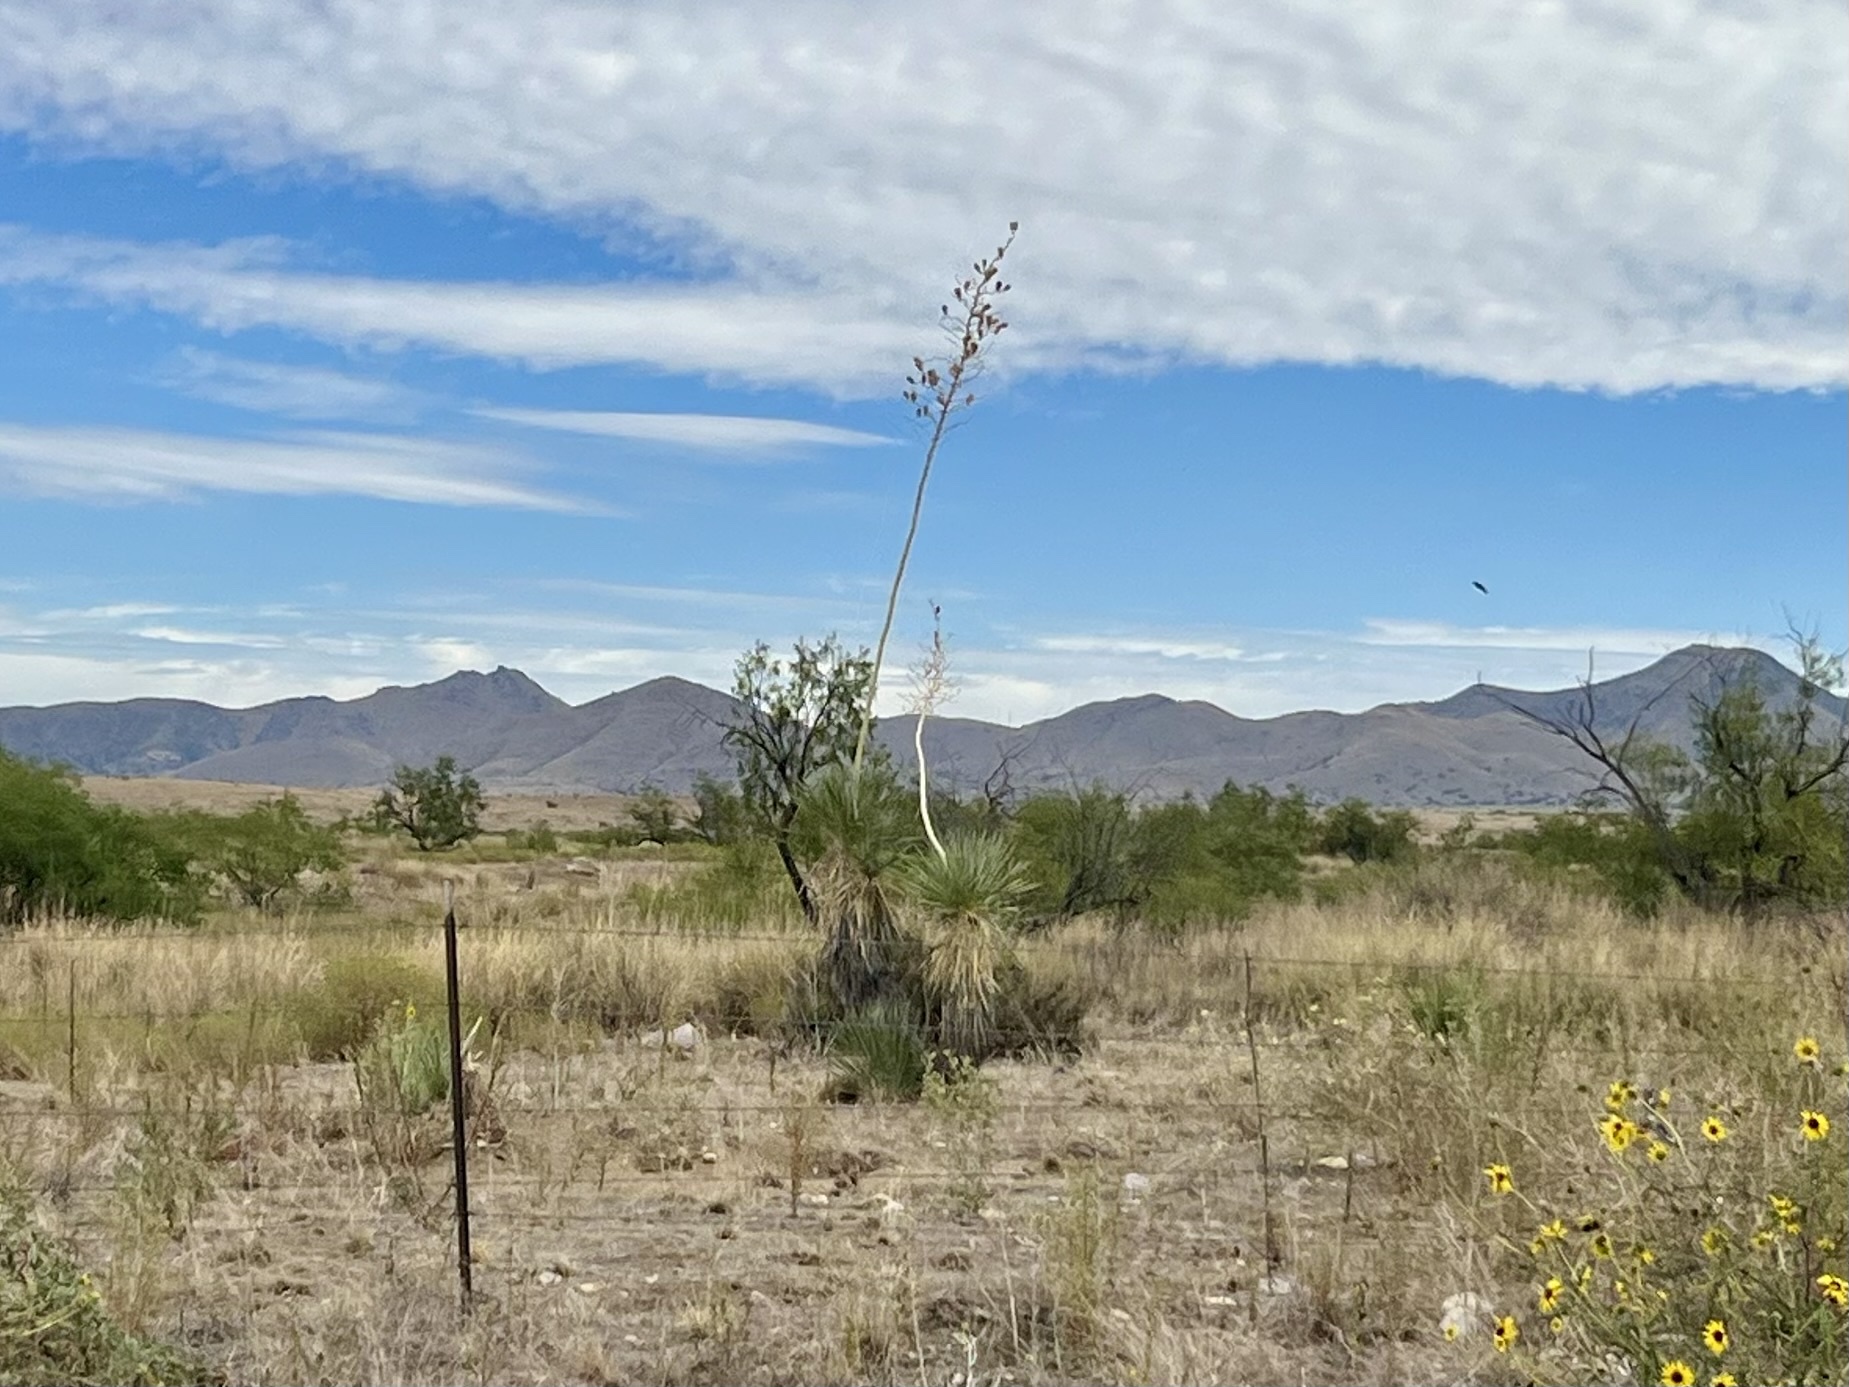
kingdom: Plantae
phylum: Tracheophyta
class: Liliopsida
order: Asparagales
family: Asparagaceae
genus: Yucca
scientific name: Yucca elata
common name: Palmella
